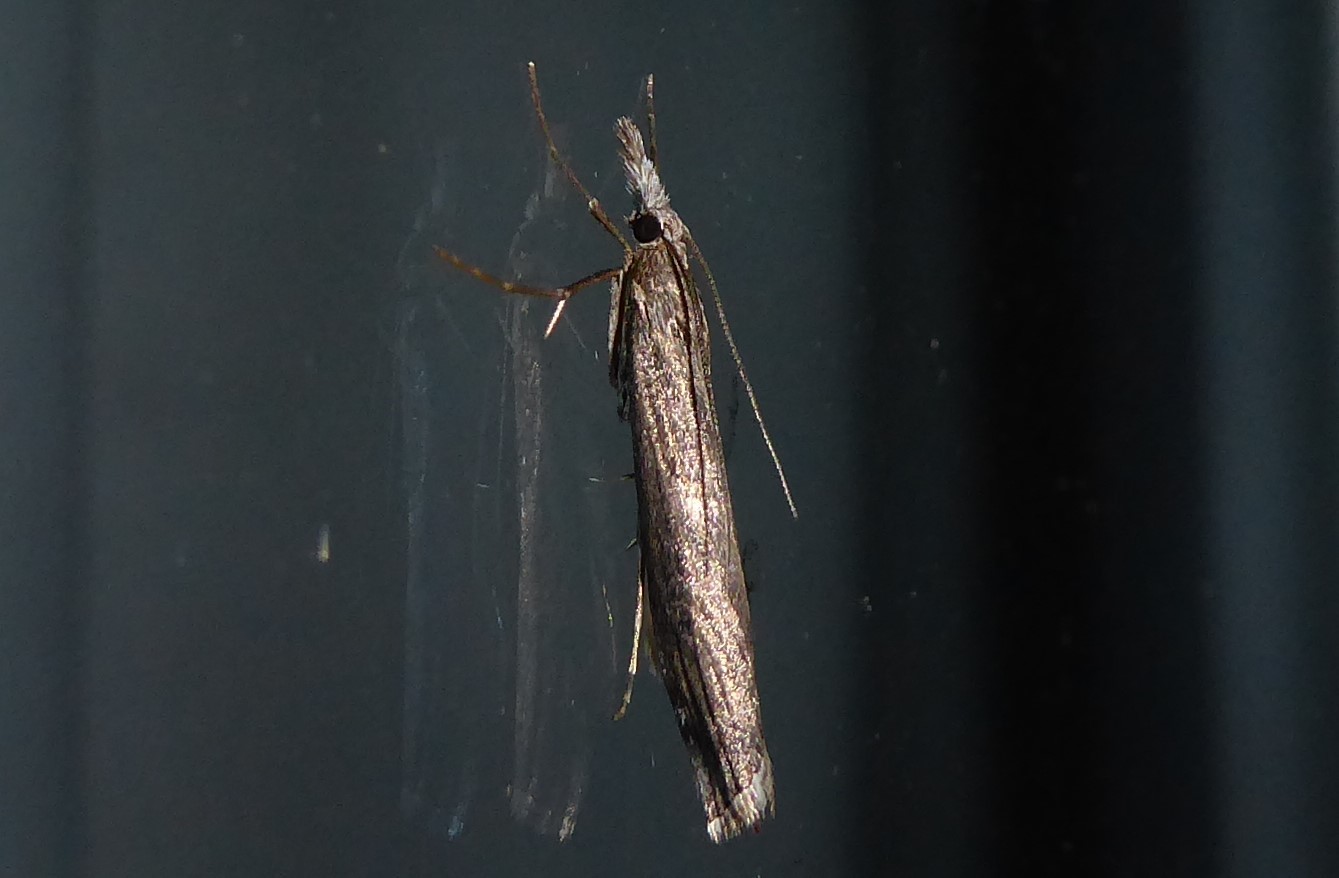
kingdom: Animalia
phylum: Arthropoda
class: Insecta
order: Lepidoptera
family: Crambidae
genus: Orocrambus
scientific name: Orocrambus cyclopicus
